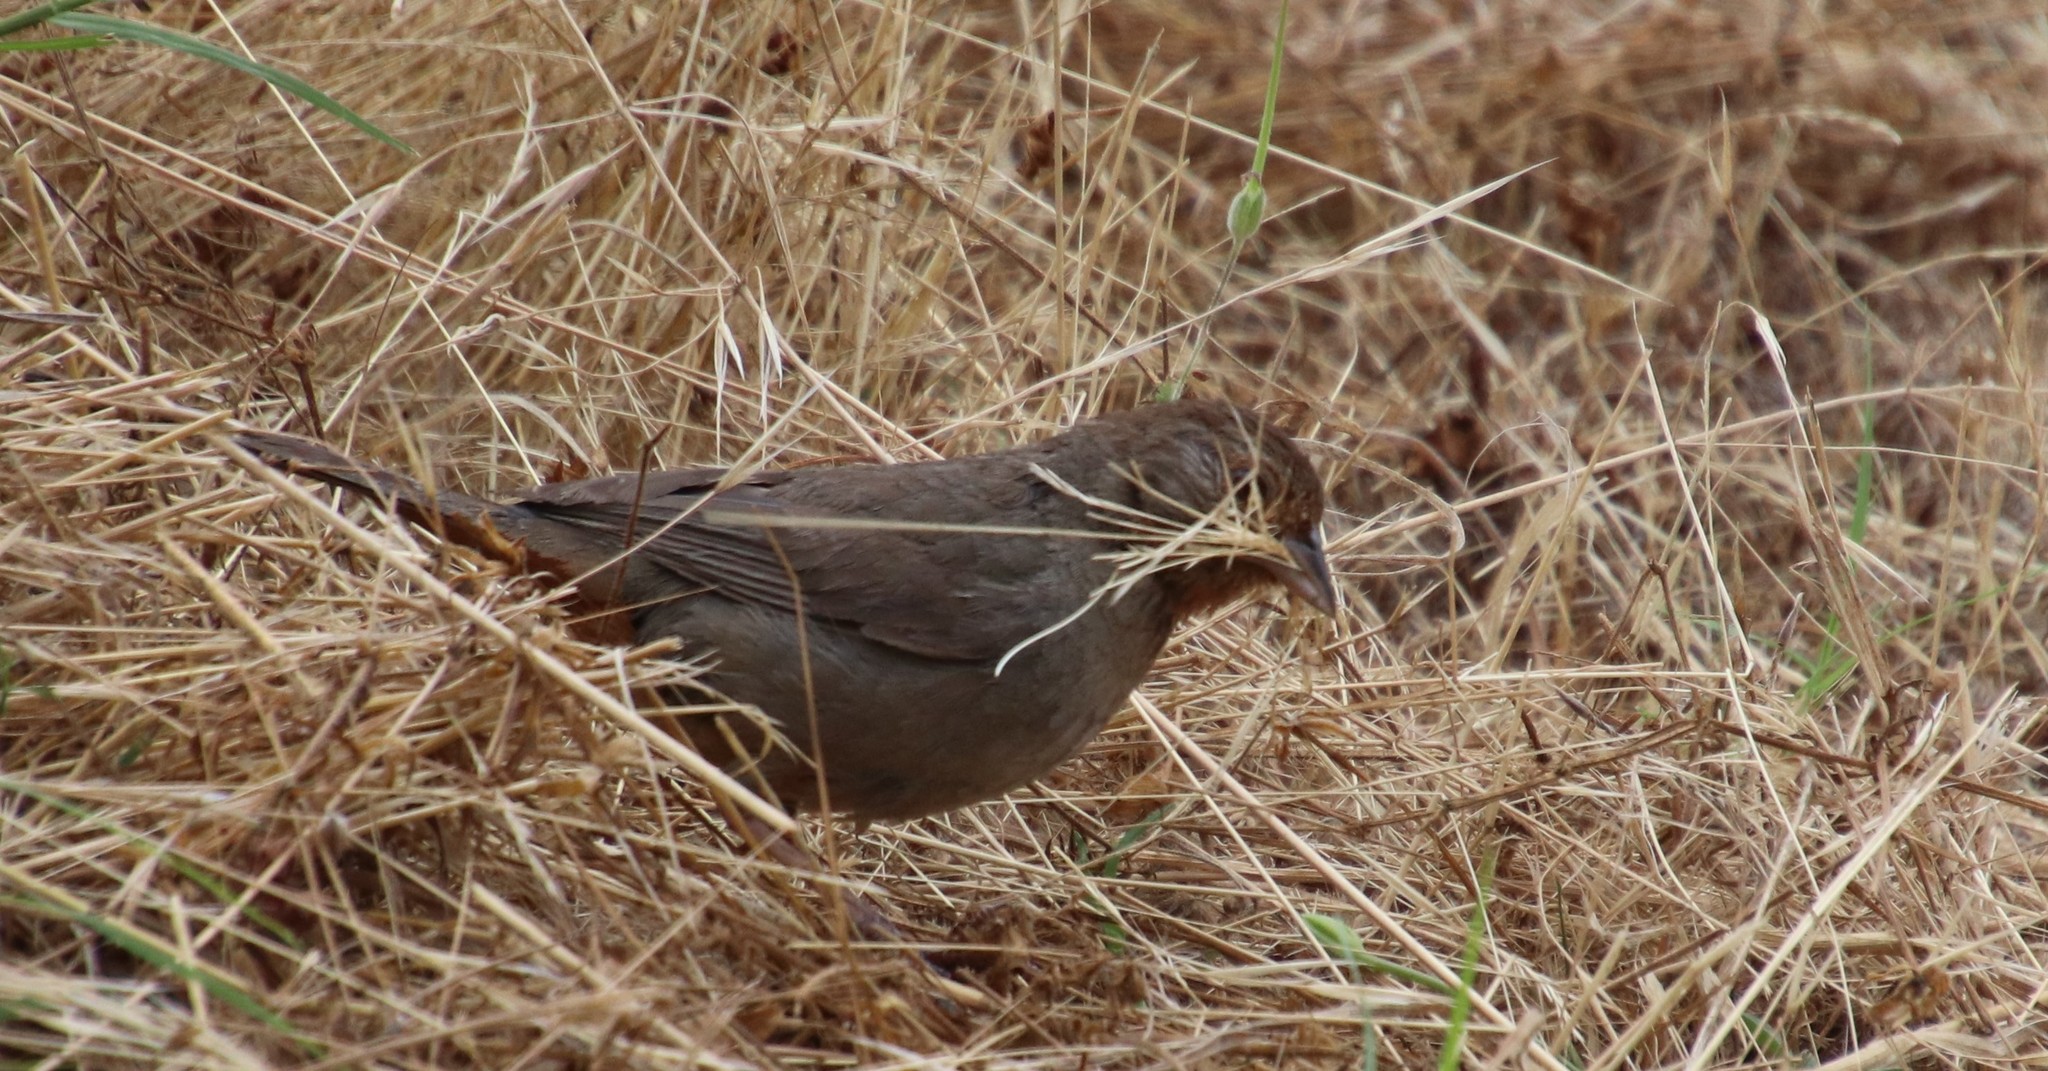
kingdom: Animalia
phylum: Chordata
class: Aves
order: Passeriformes
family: Passerellidae
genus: Melozone
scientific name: Melozone crissalis
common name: California towhee
